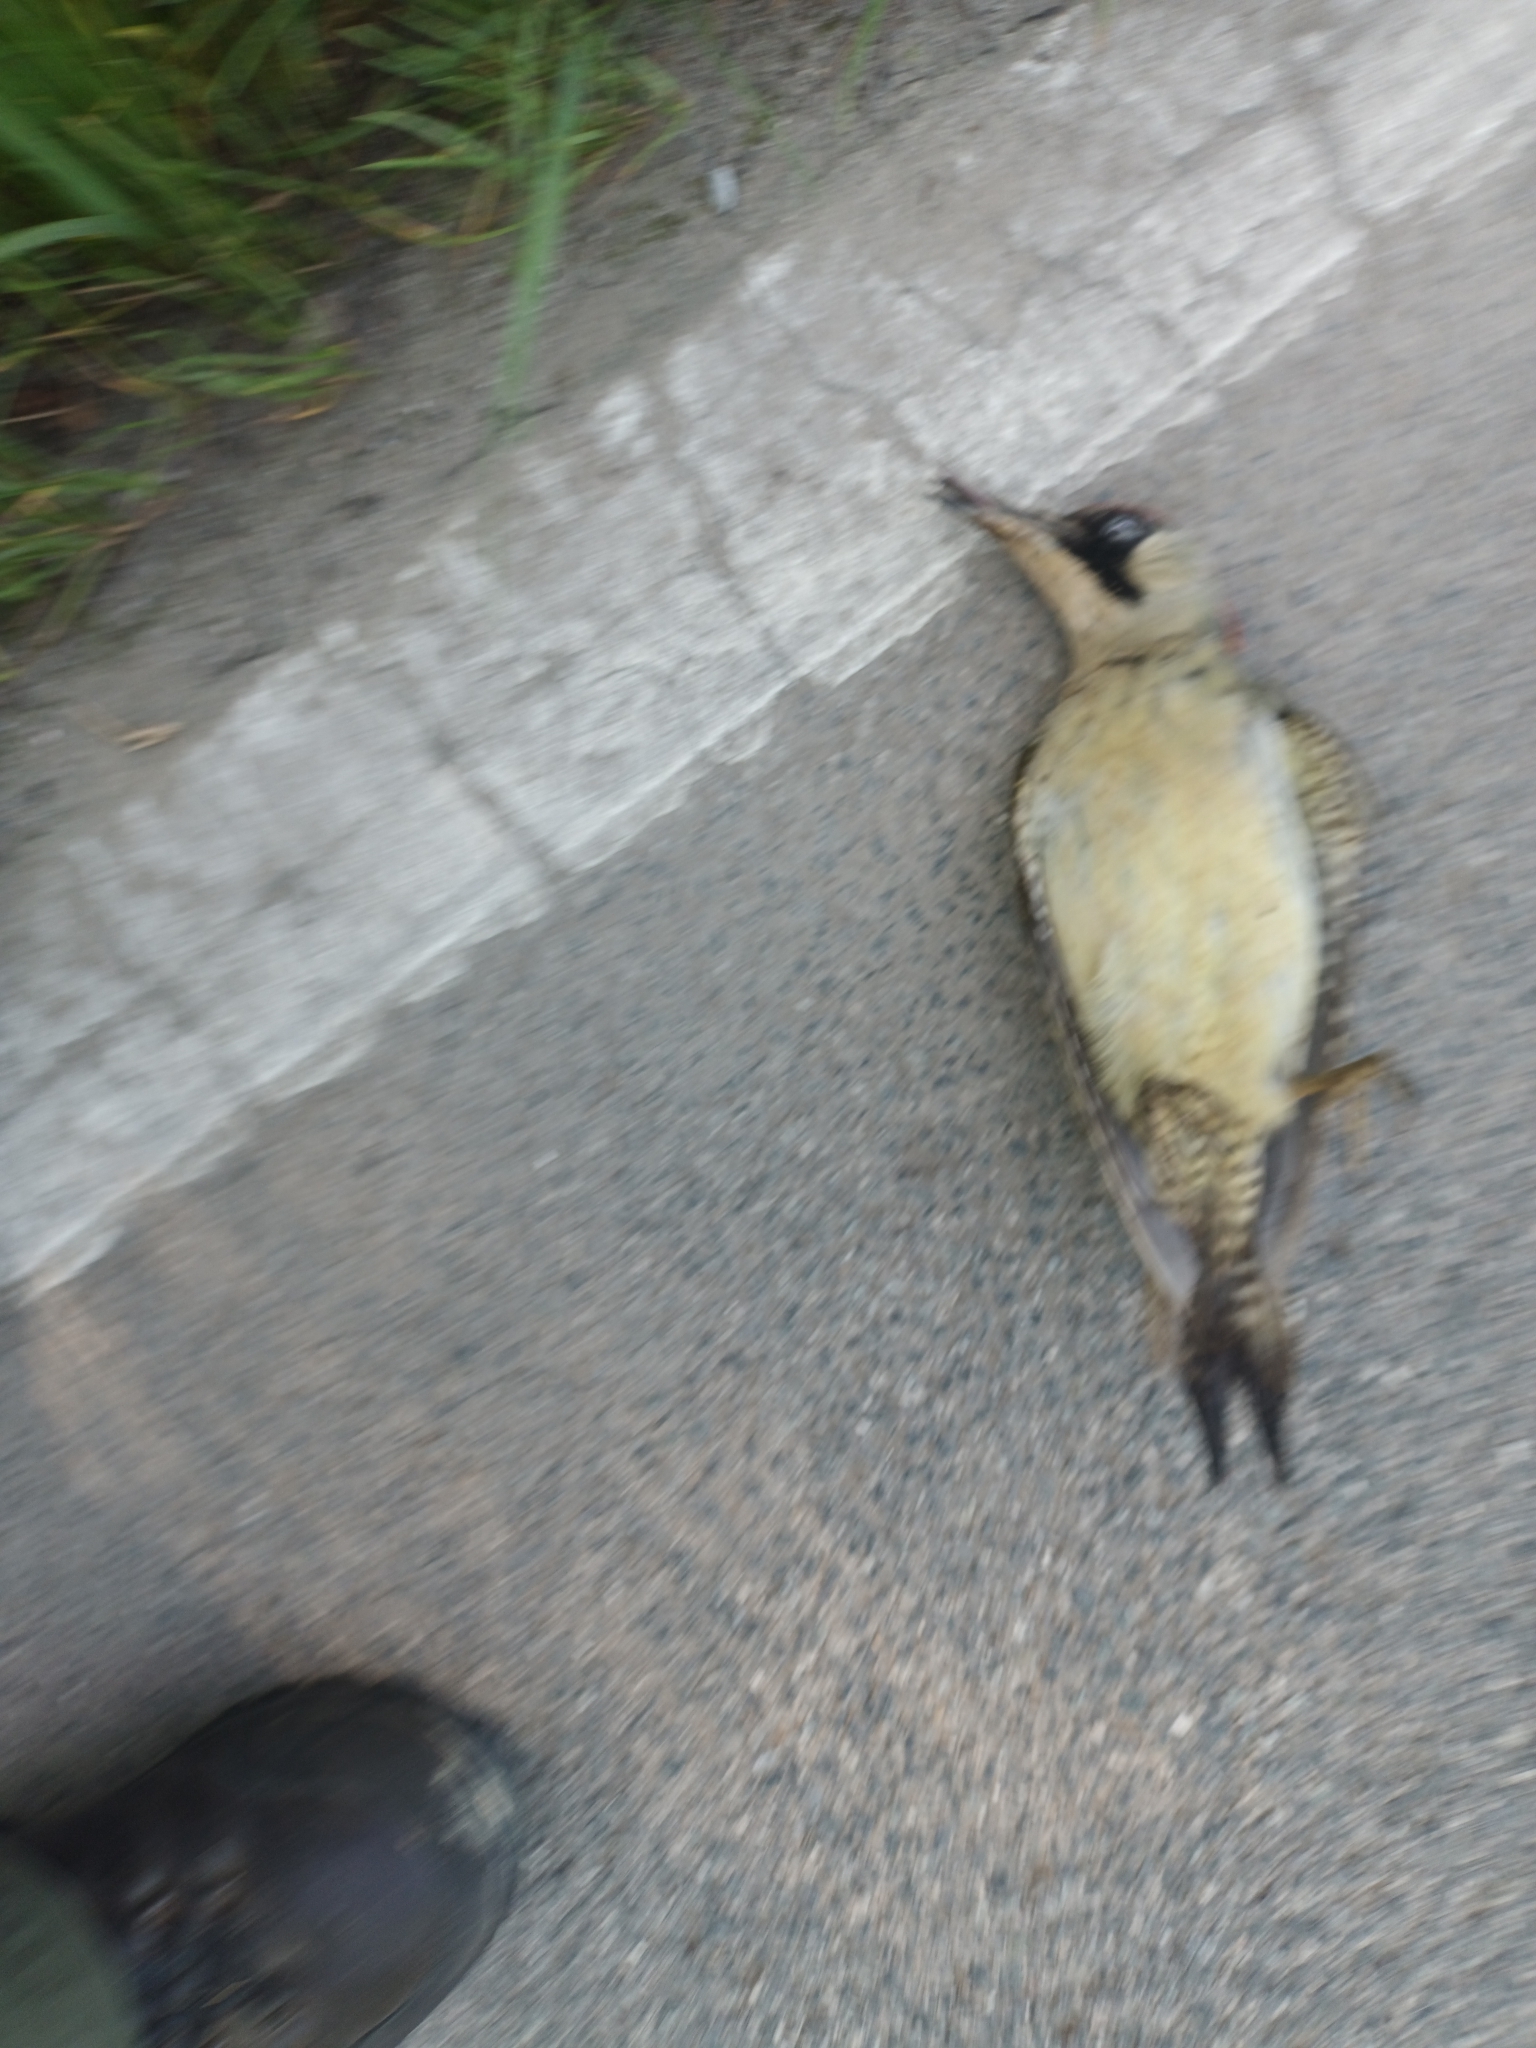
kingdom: Animalia
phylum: Chordata
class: Aves
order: Piciformes
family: Picidae
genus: Picus
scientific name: Picus viridis
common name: European green woodpecker
